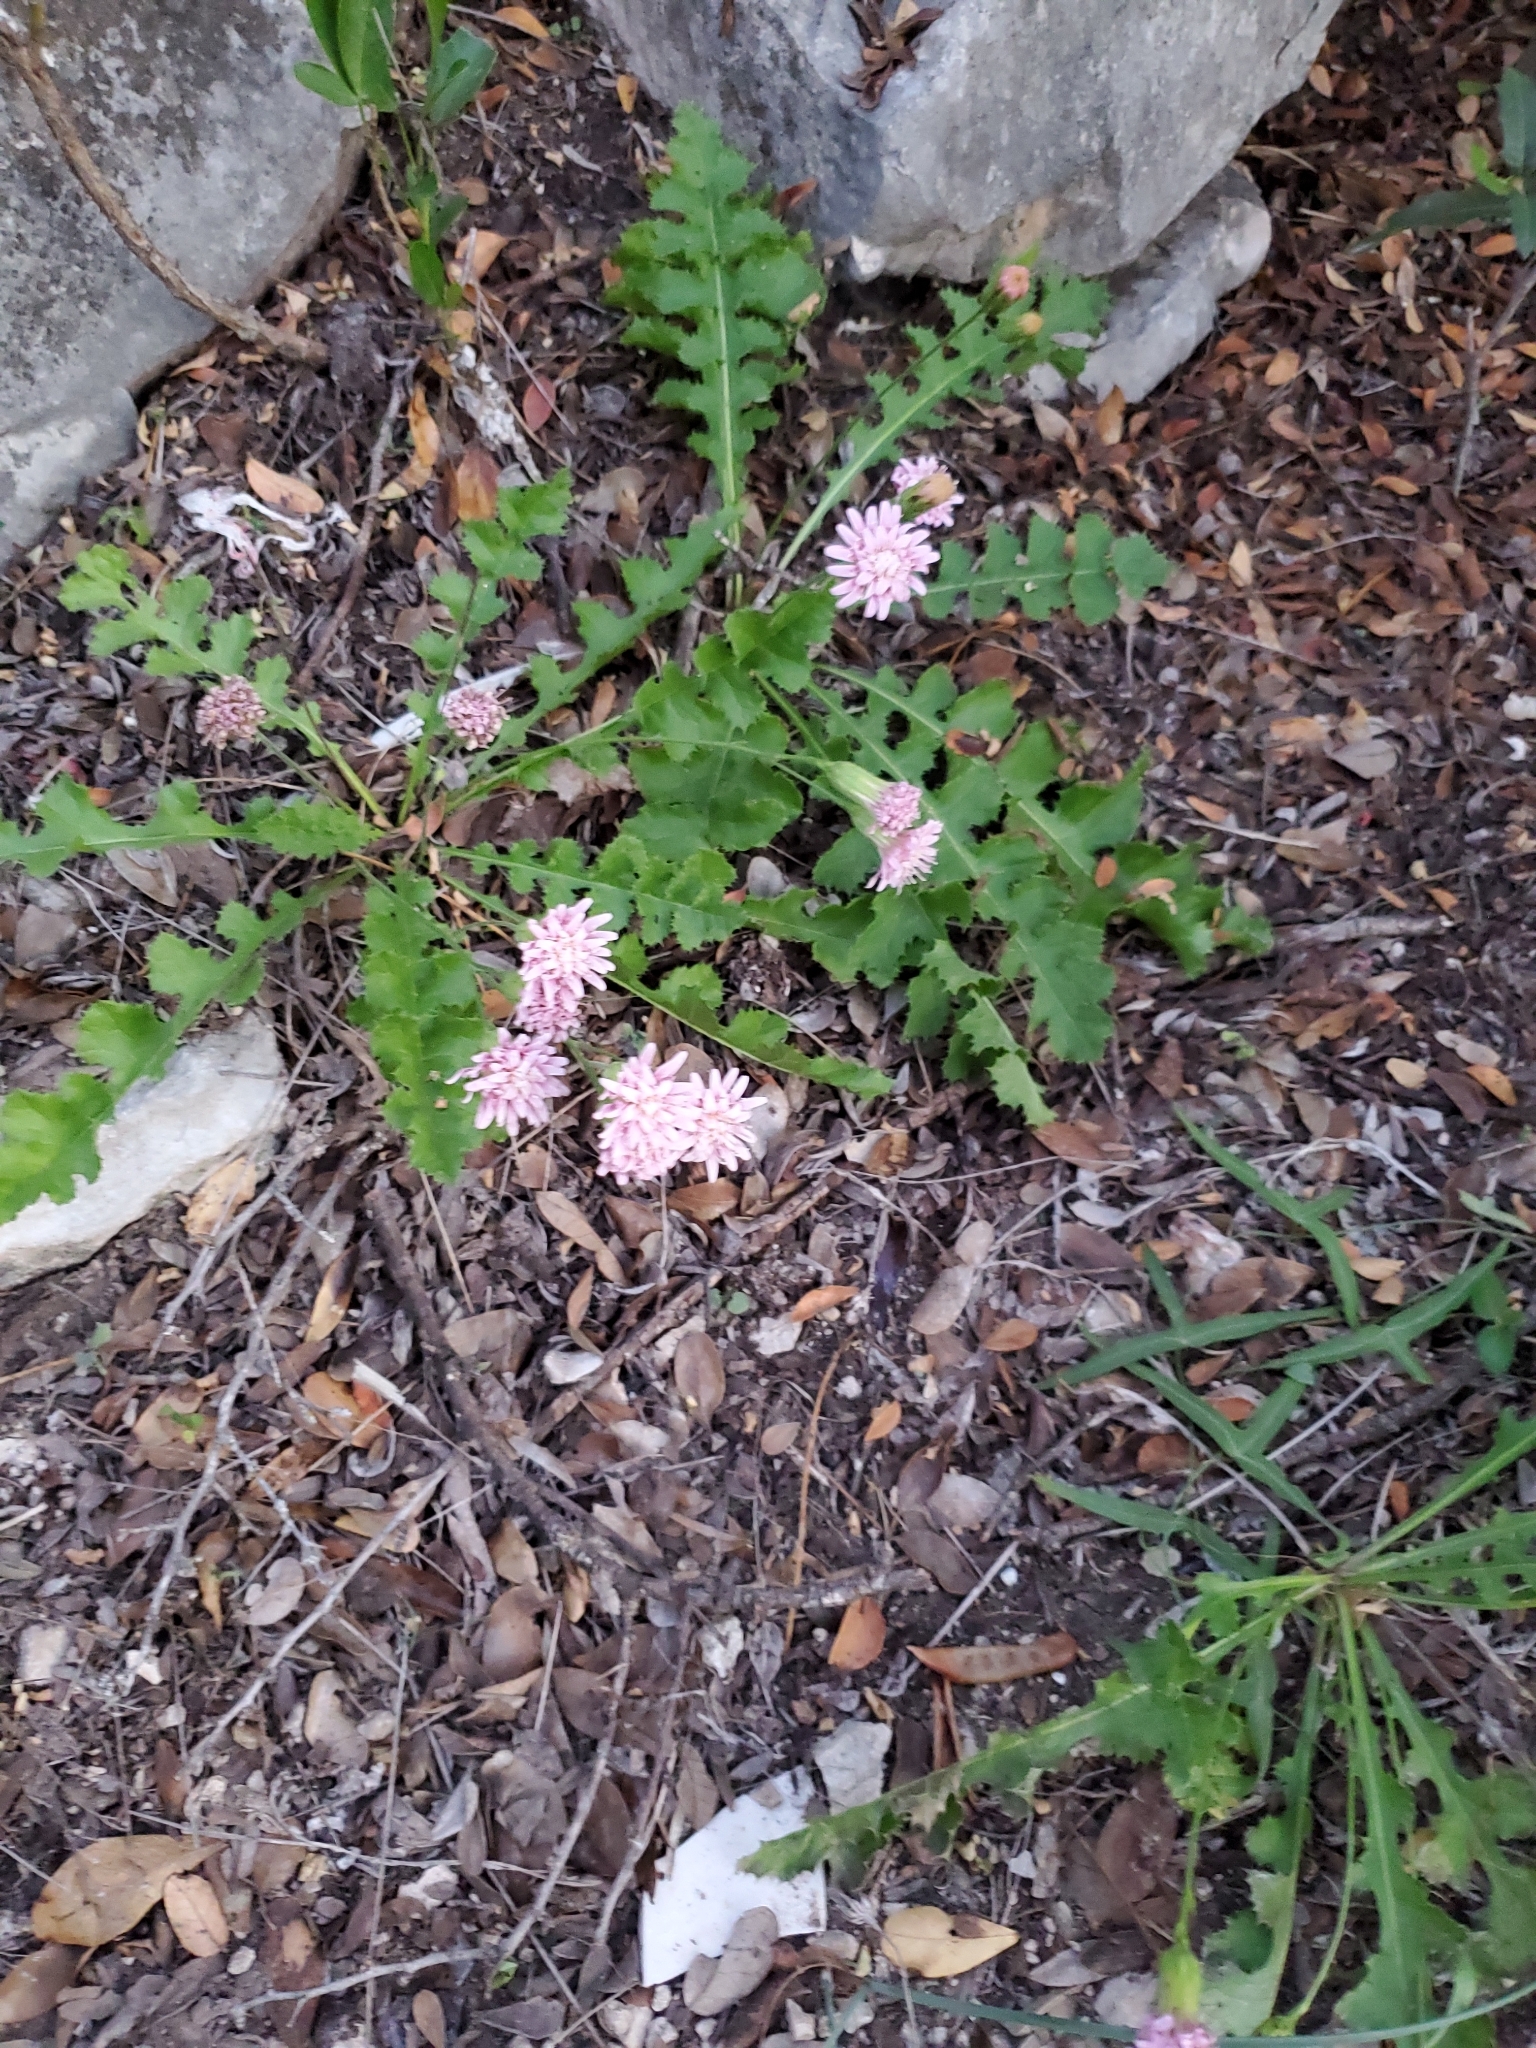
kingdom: Plantae
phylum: Tracheophyta
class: Magnoliopsida
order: Asterales
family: Asteraceae
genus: Acourtia
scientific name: Acourtia runcinata
